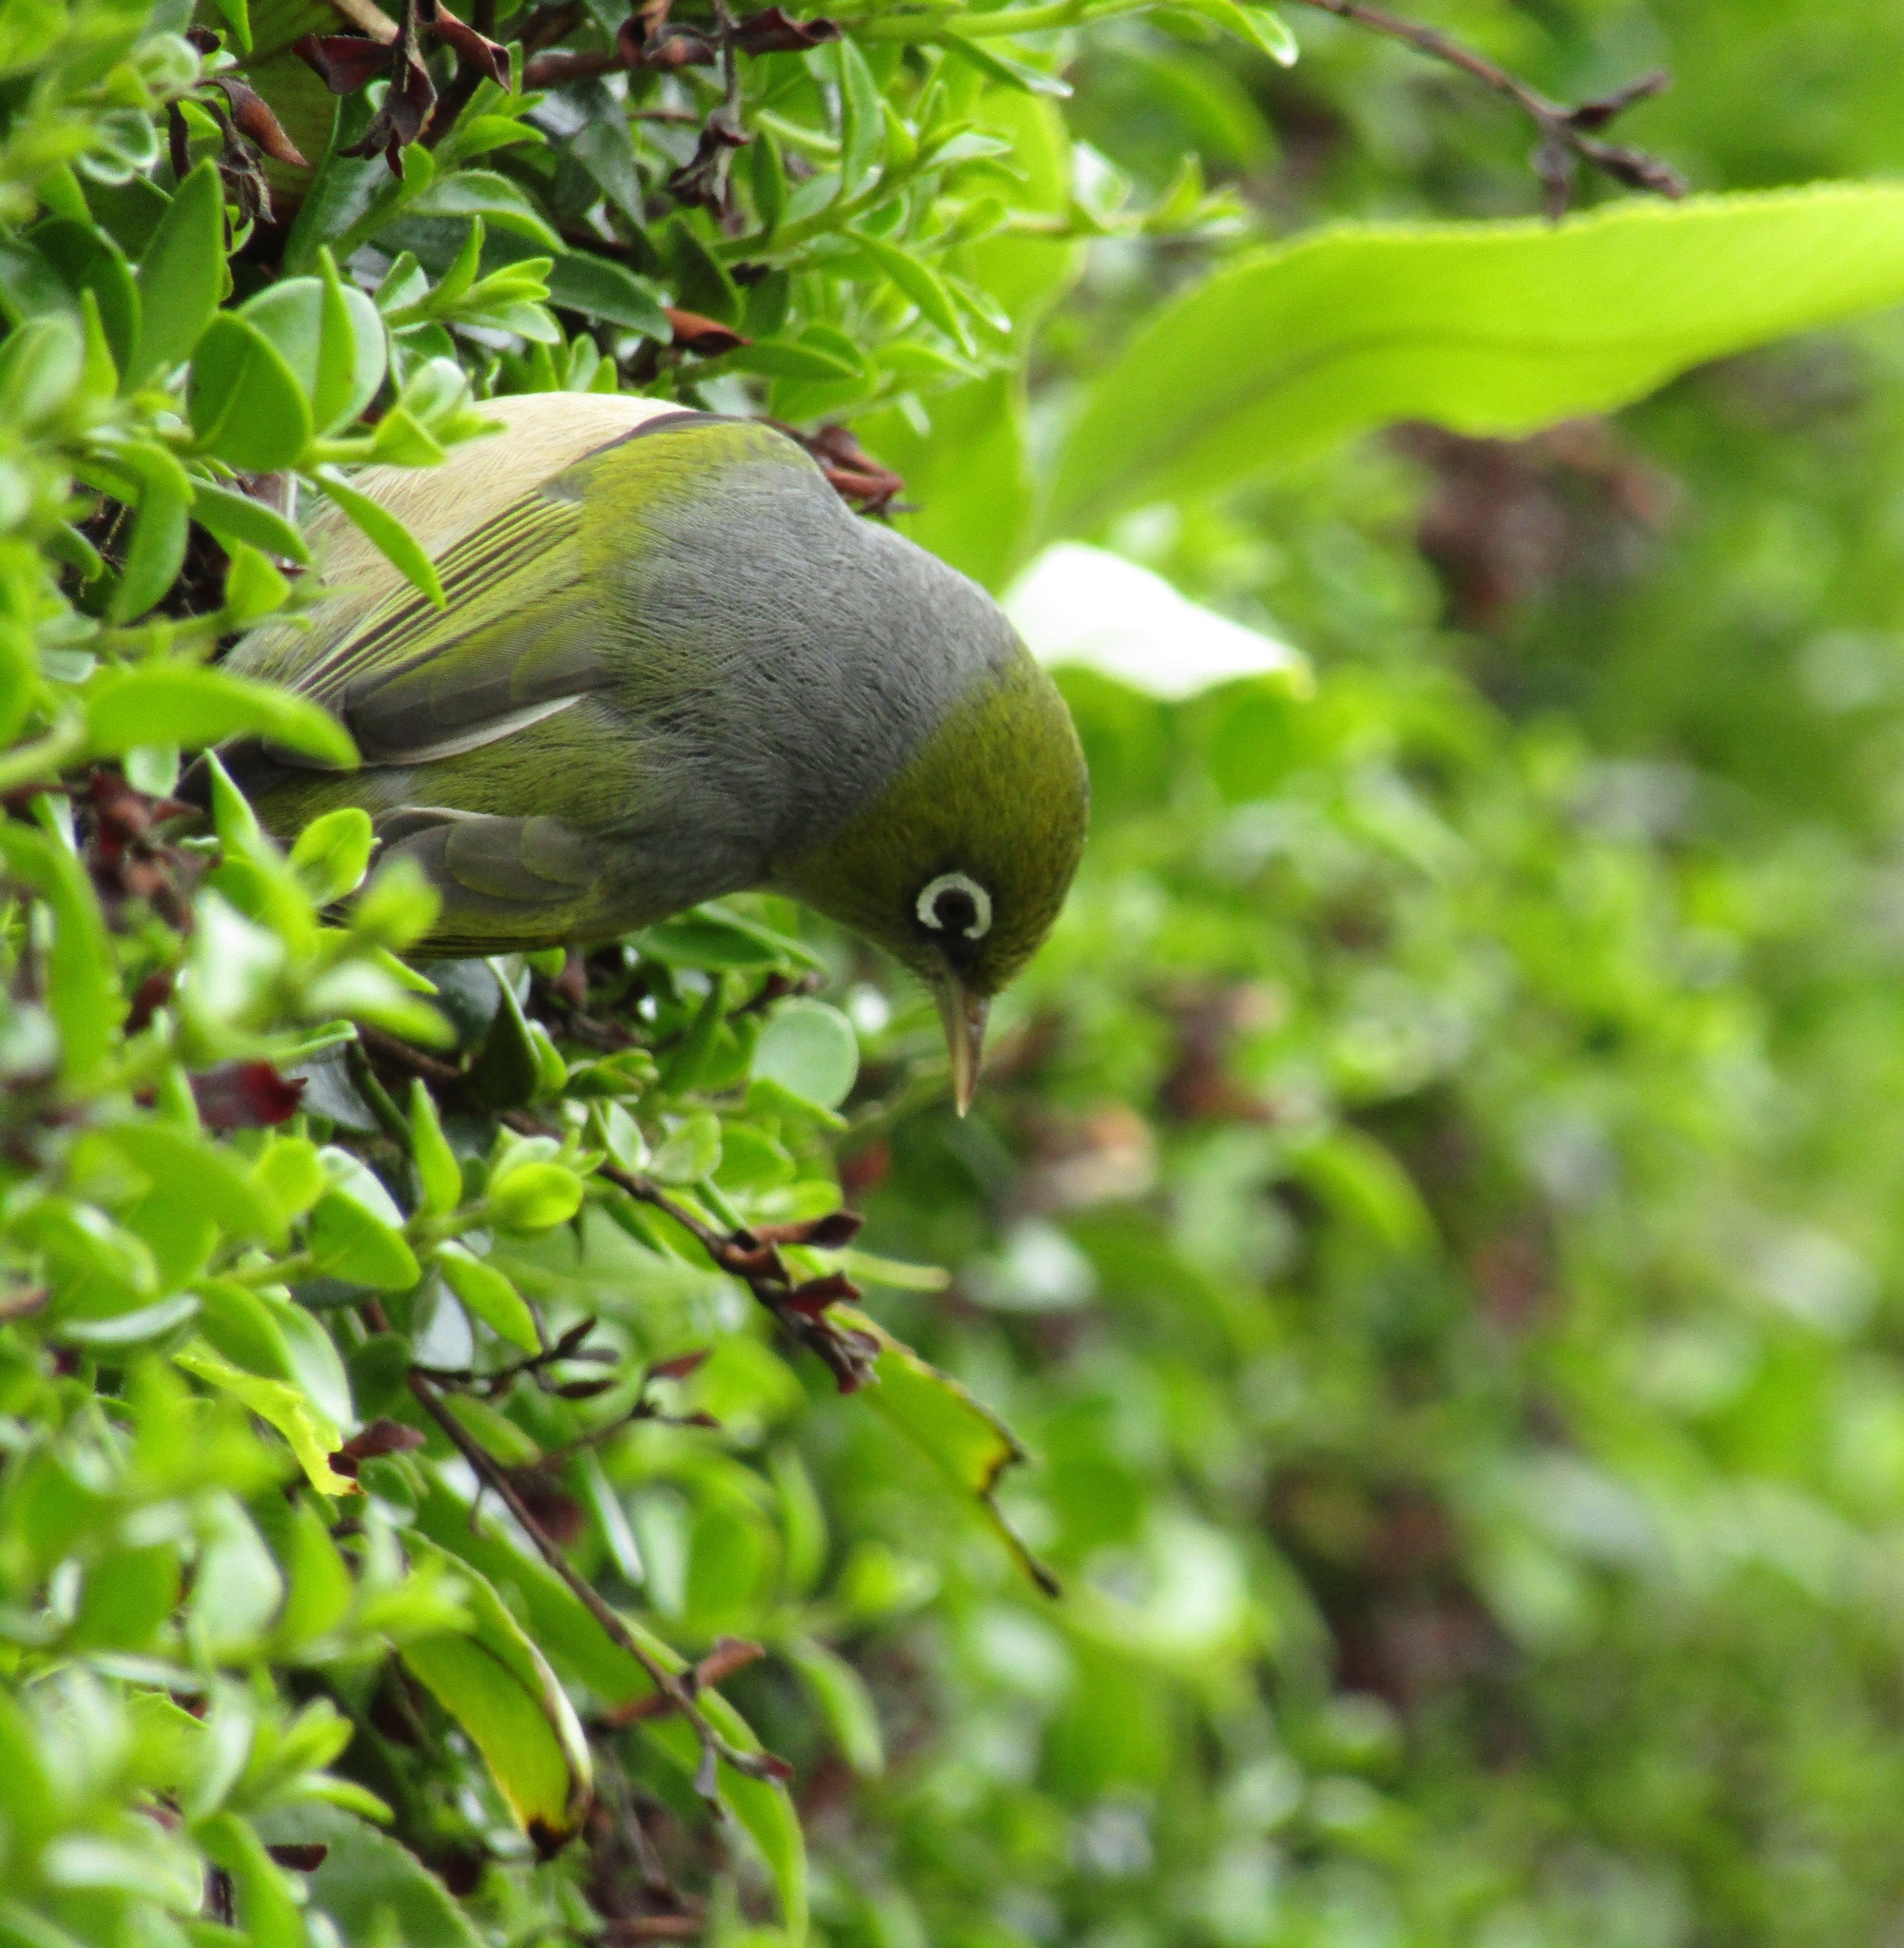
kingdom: Animalia
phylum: Chordata
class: Aves
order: Passeriformes
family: Zosteropidae
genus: Zosterops
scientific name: Zosterops lateralis
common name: Silvereye
